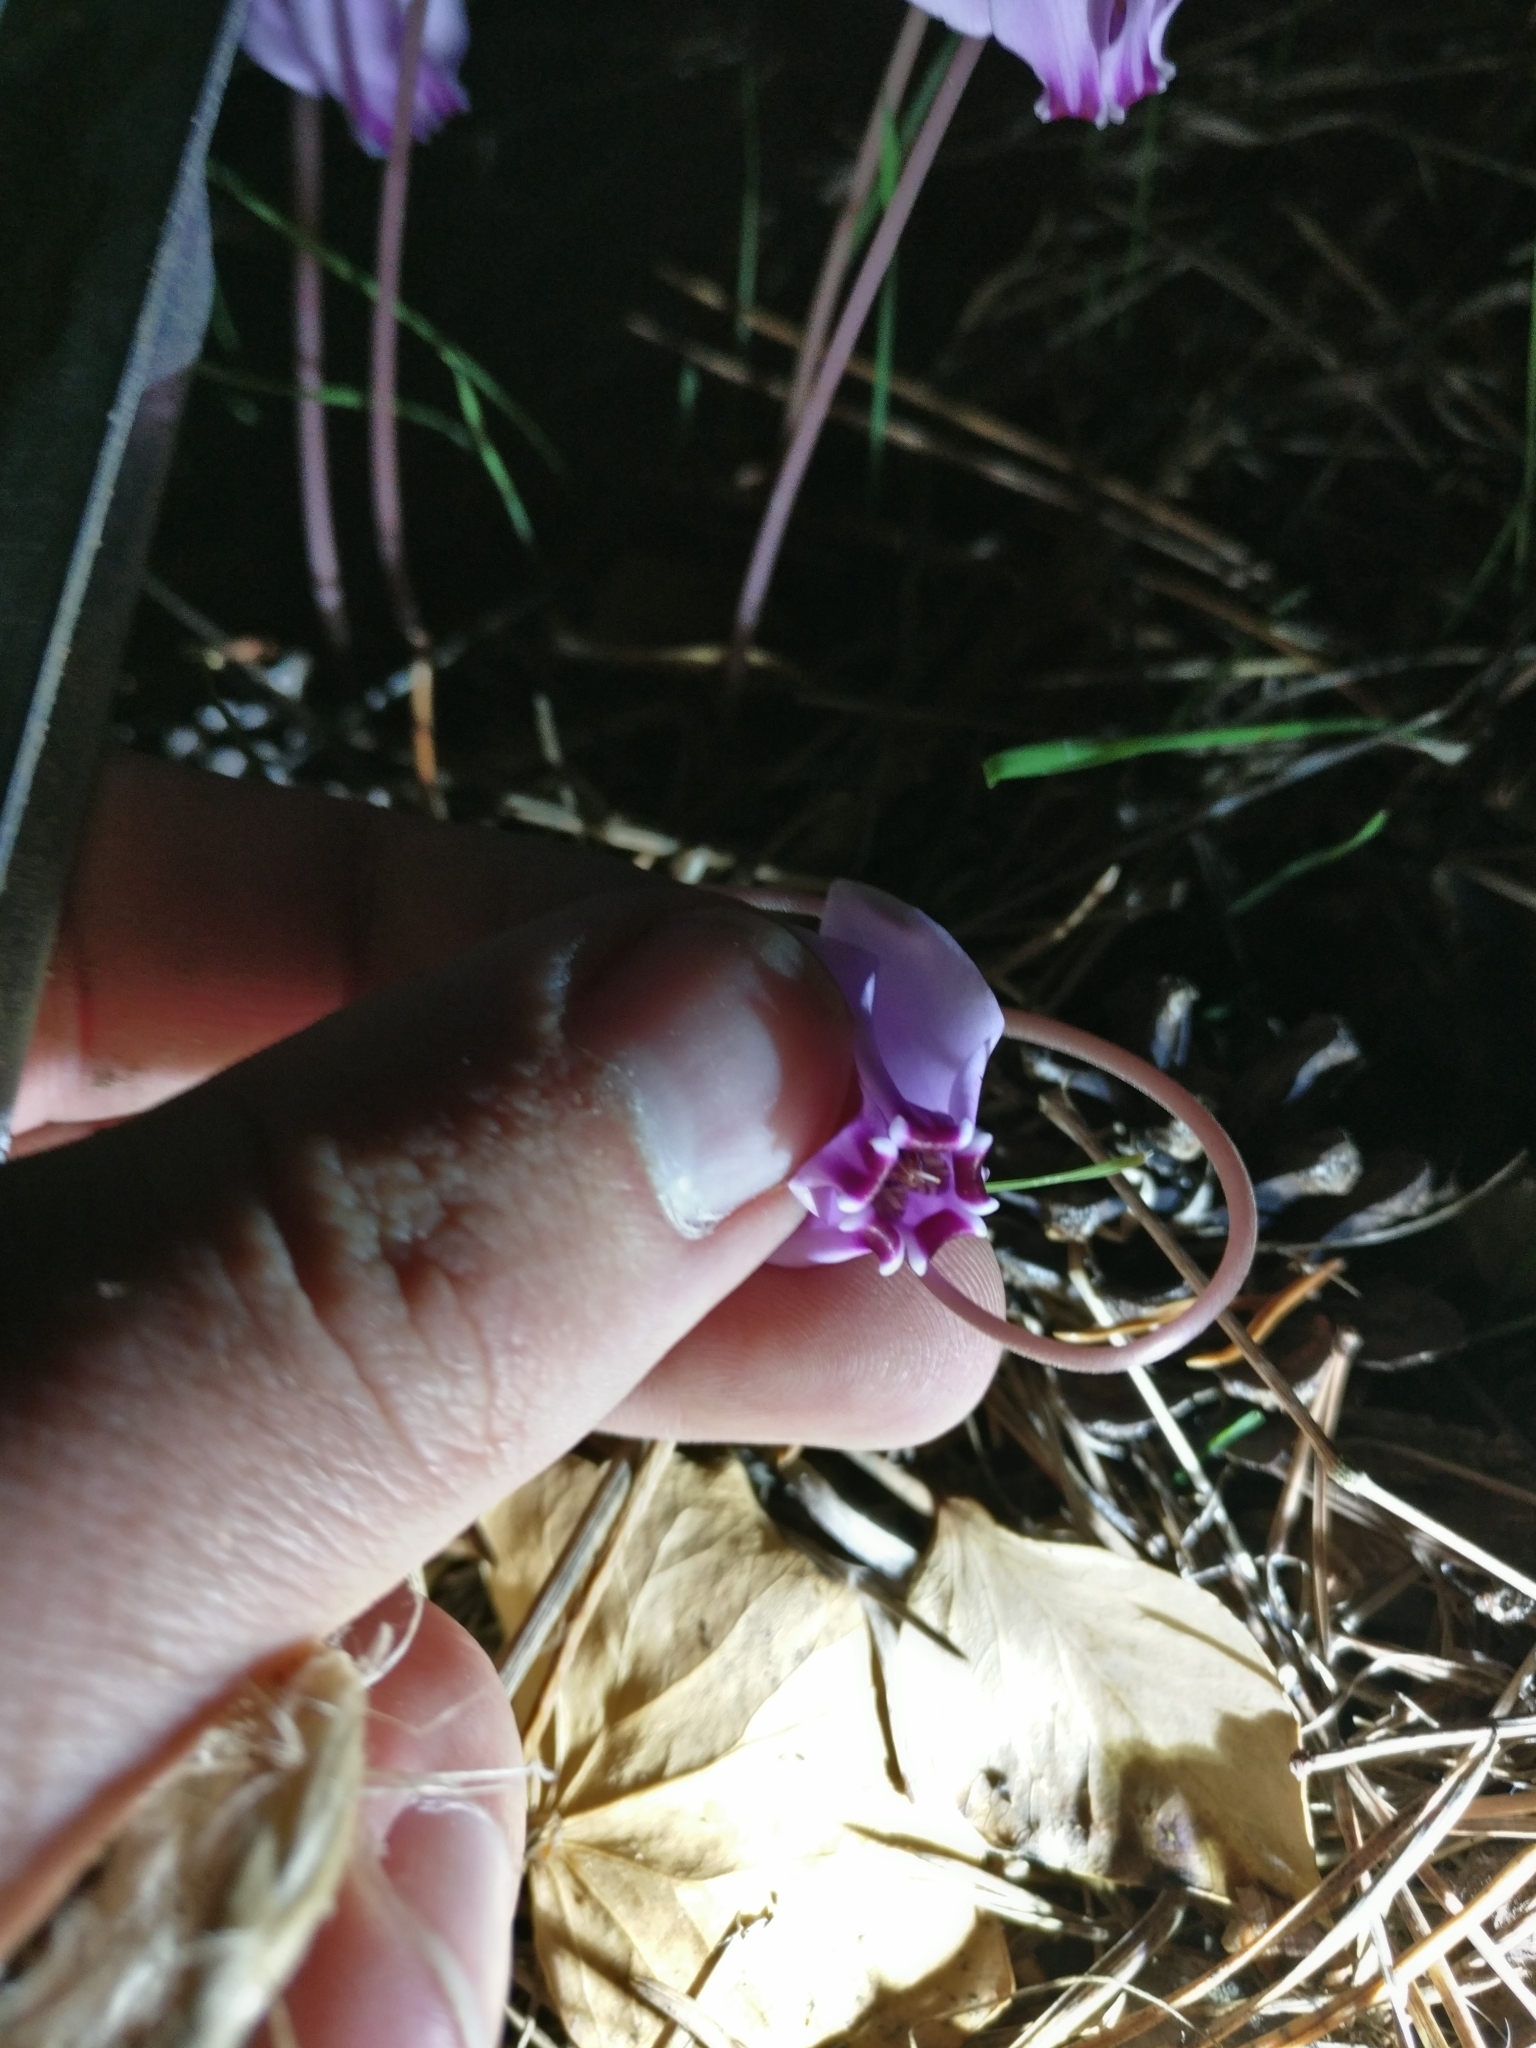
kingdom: Plantae
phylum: Tracheophyta
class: Magnoliopsida
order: Ericales
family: Primulaceae
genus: Cyclamen
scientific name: Cyclamen hederifolium
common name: Sowbread
